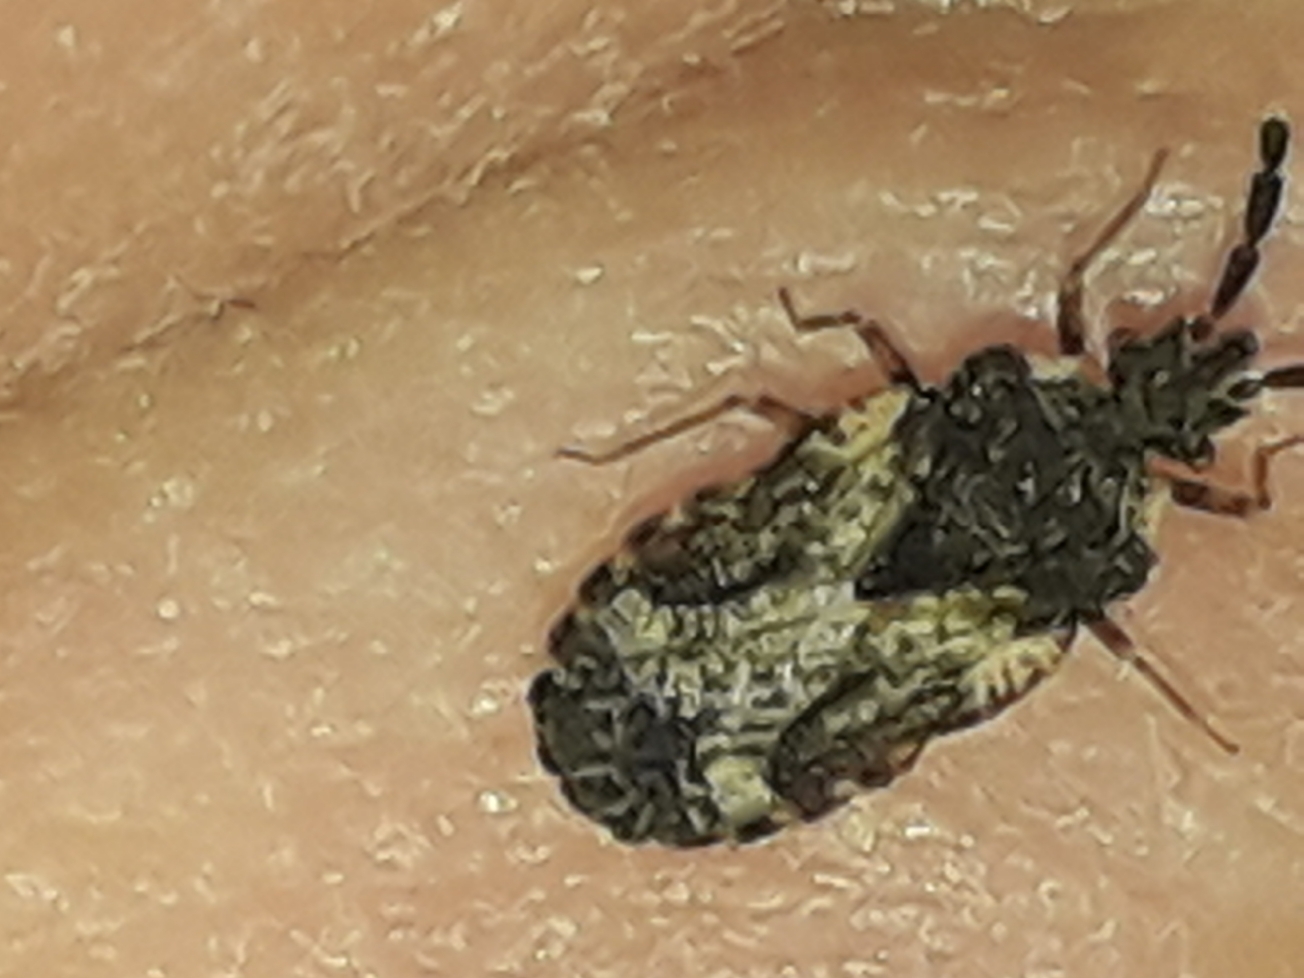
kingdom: Animalia
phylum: Arthropoda
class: Insecta
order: Hemiptera
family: Aradidae
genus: Aradus
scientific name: Aradus depressus
